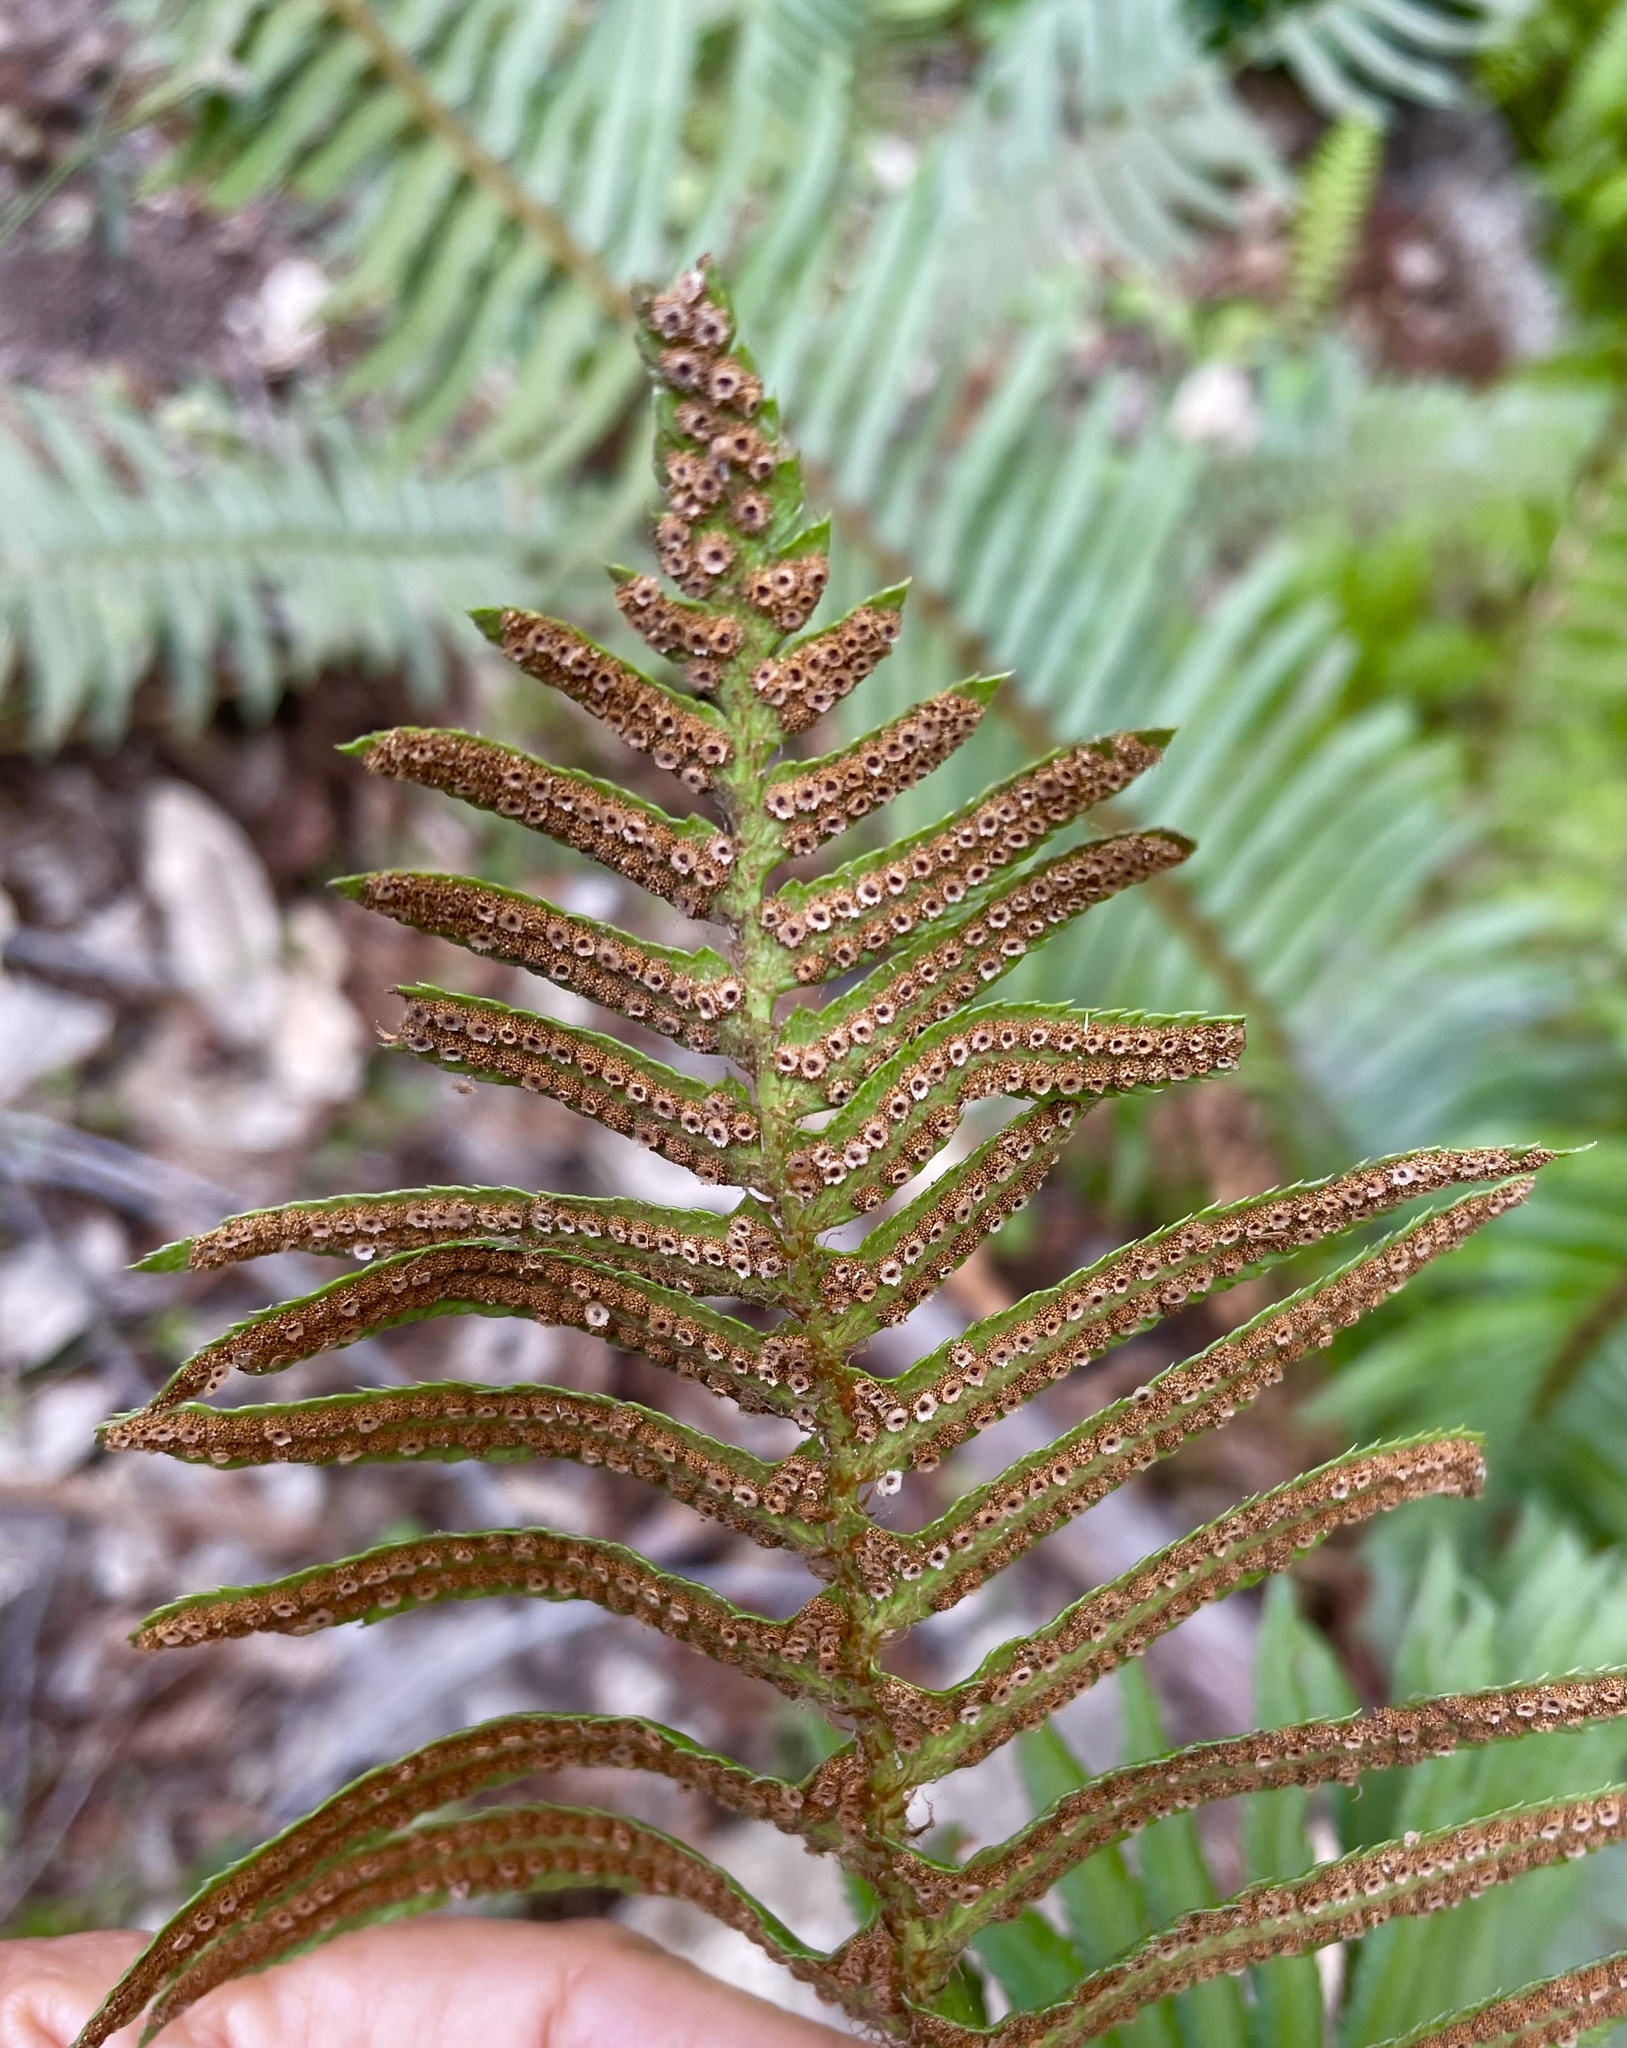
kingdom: Plantae
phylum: Tracheophyta
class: Polypodiopsida
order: Polypodiales
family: Dryopteridaceae
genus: Polystichum
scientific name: Polystichum munitum
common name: Western sword-fern
